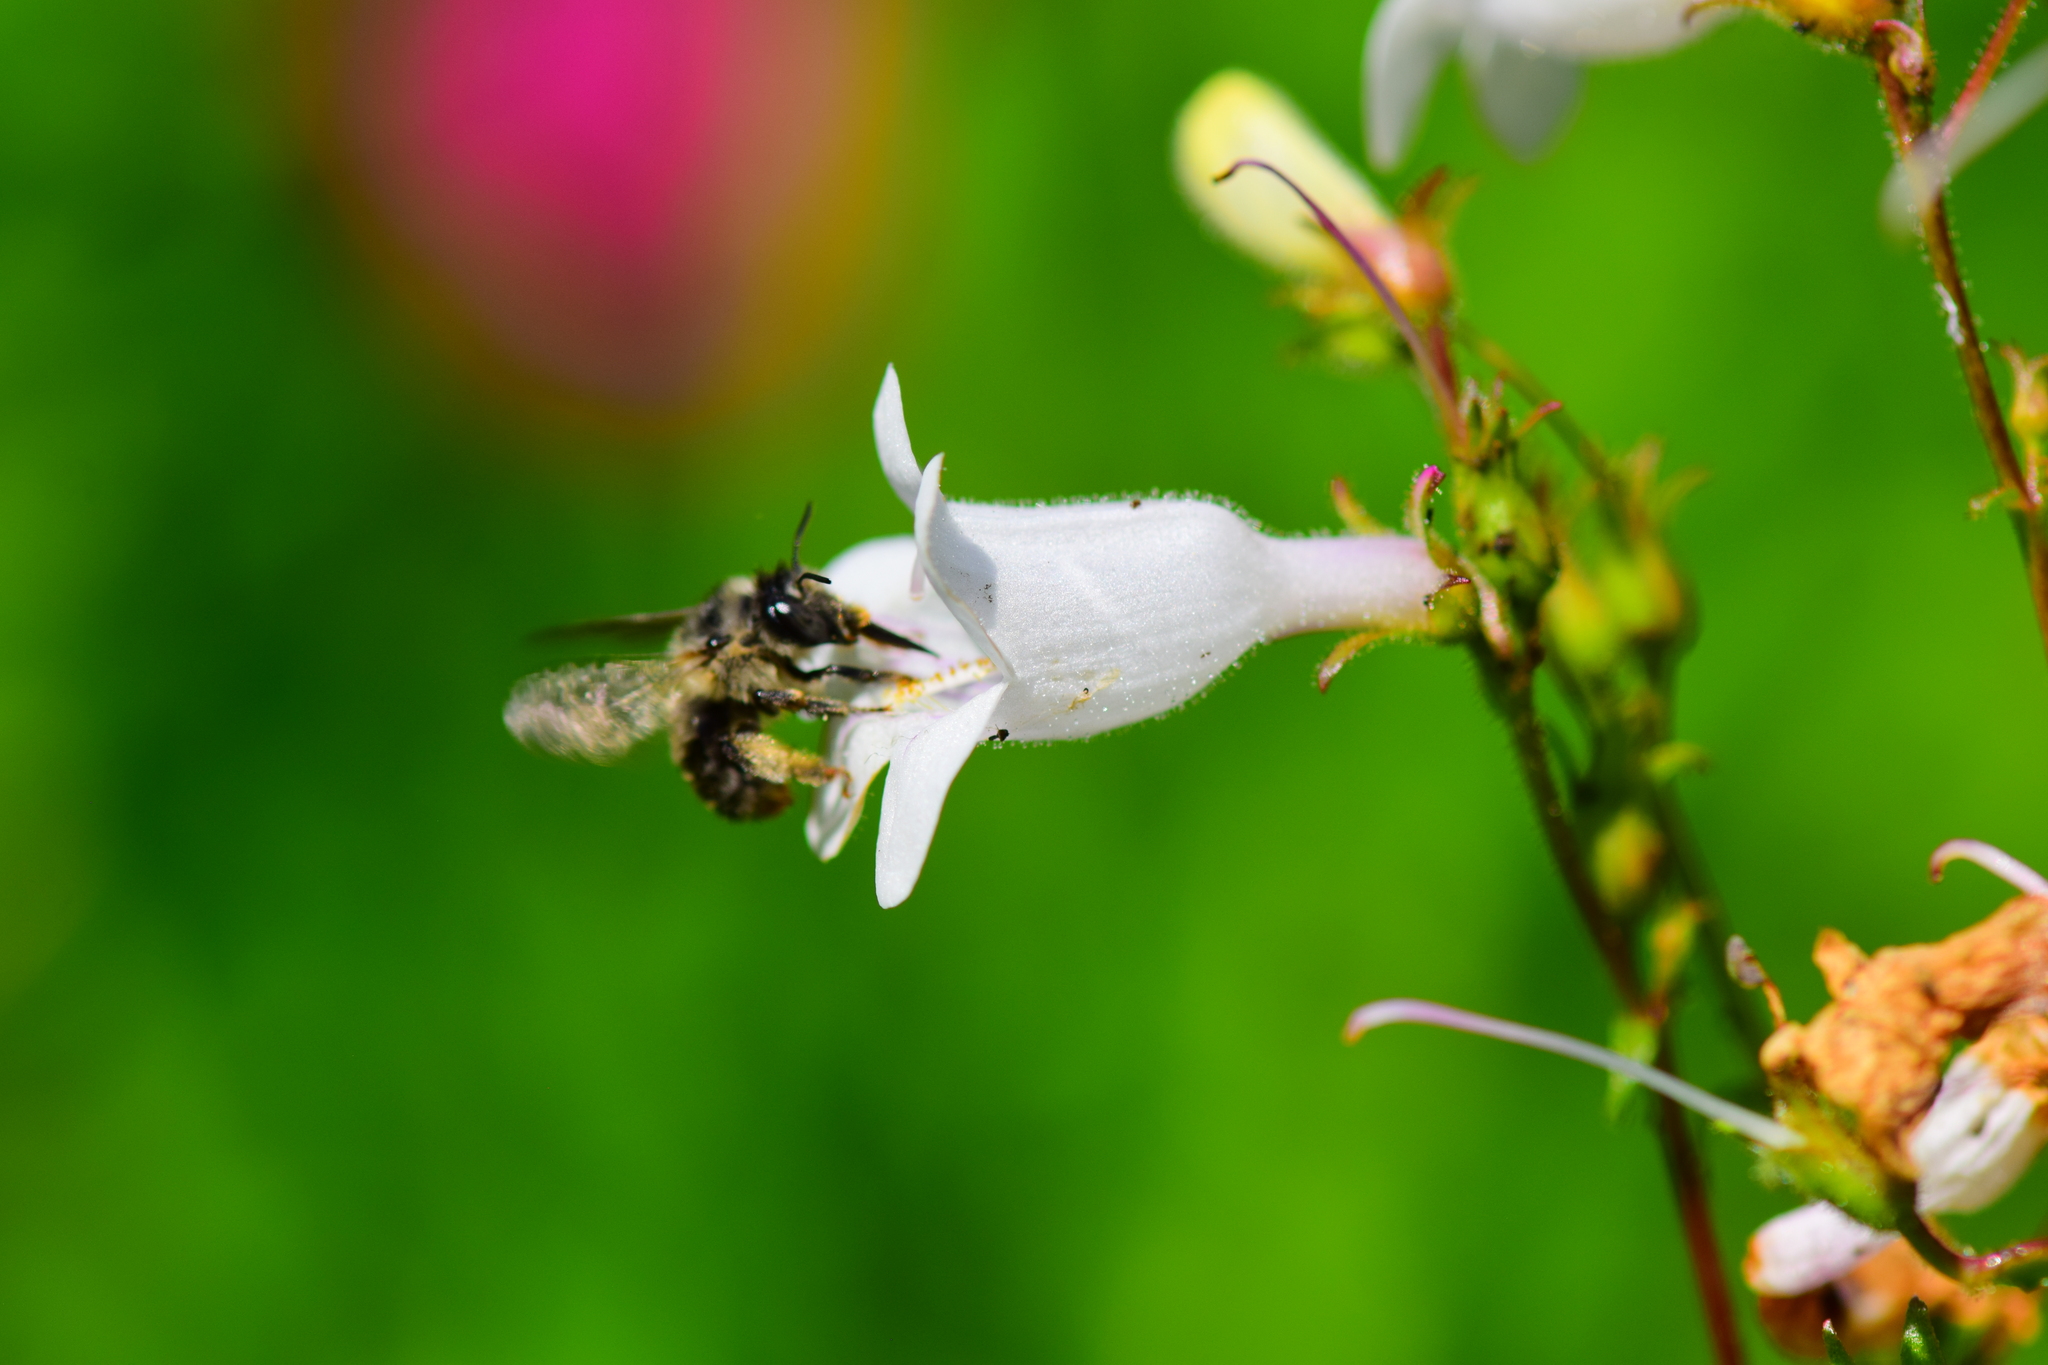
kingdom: Animalia
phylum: Arthropoda
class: Insecta
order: Hymenoptera
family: Apidae
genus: Anthophora
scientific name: Anthophora terminalis
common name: Orange-tipped wood-digger bee
